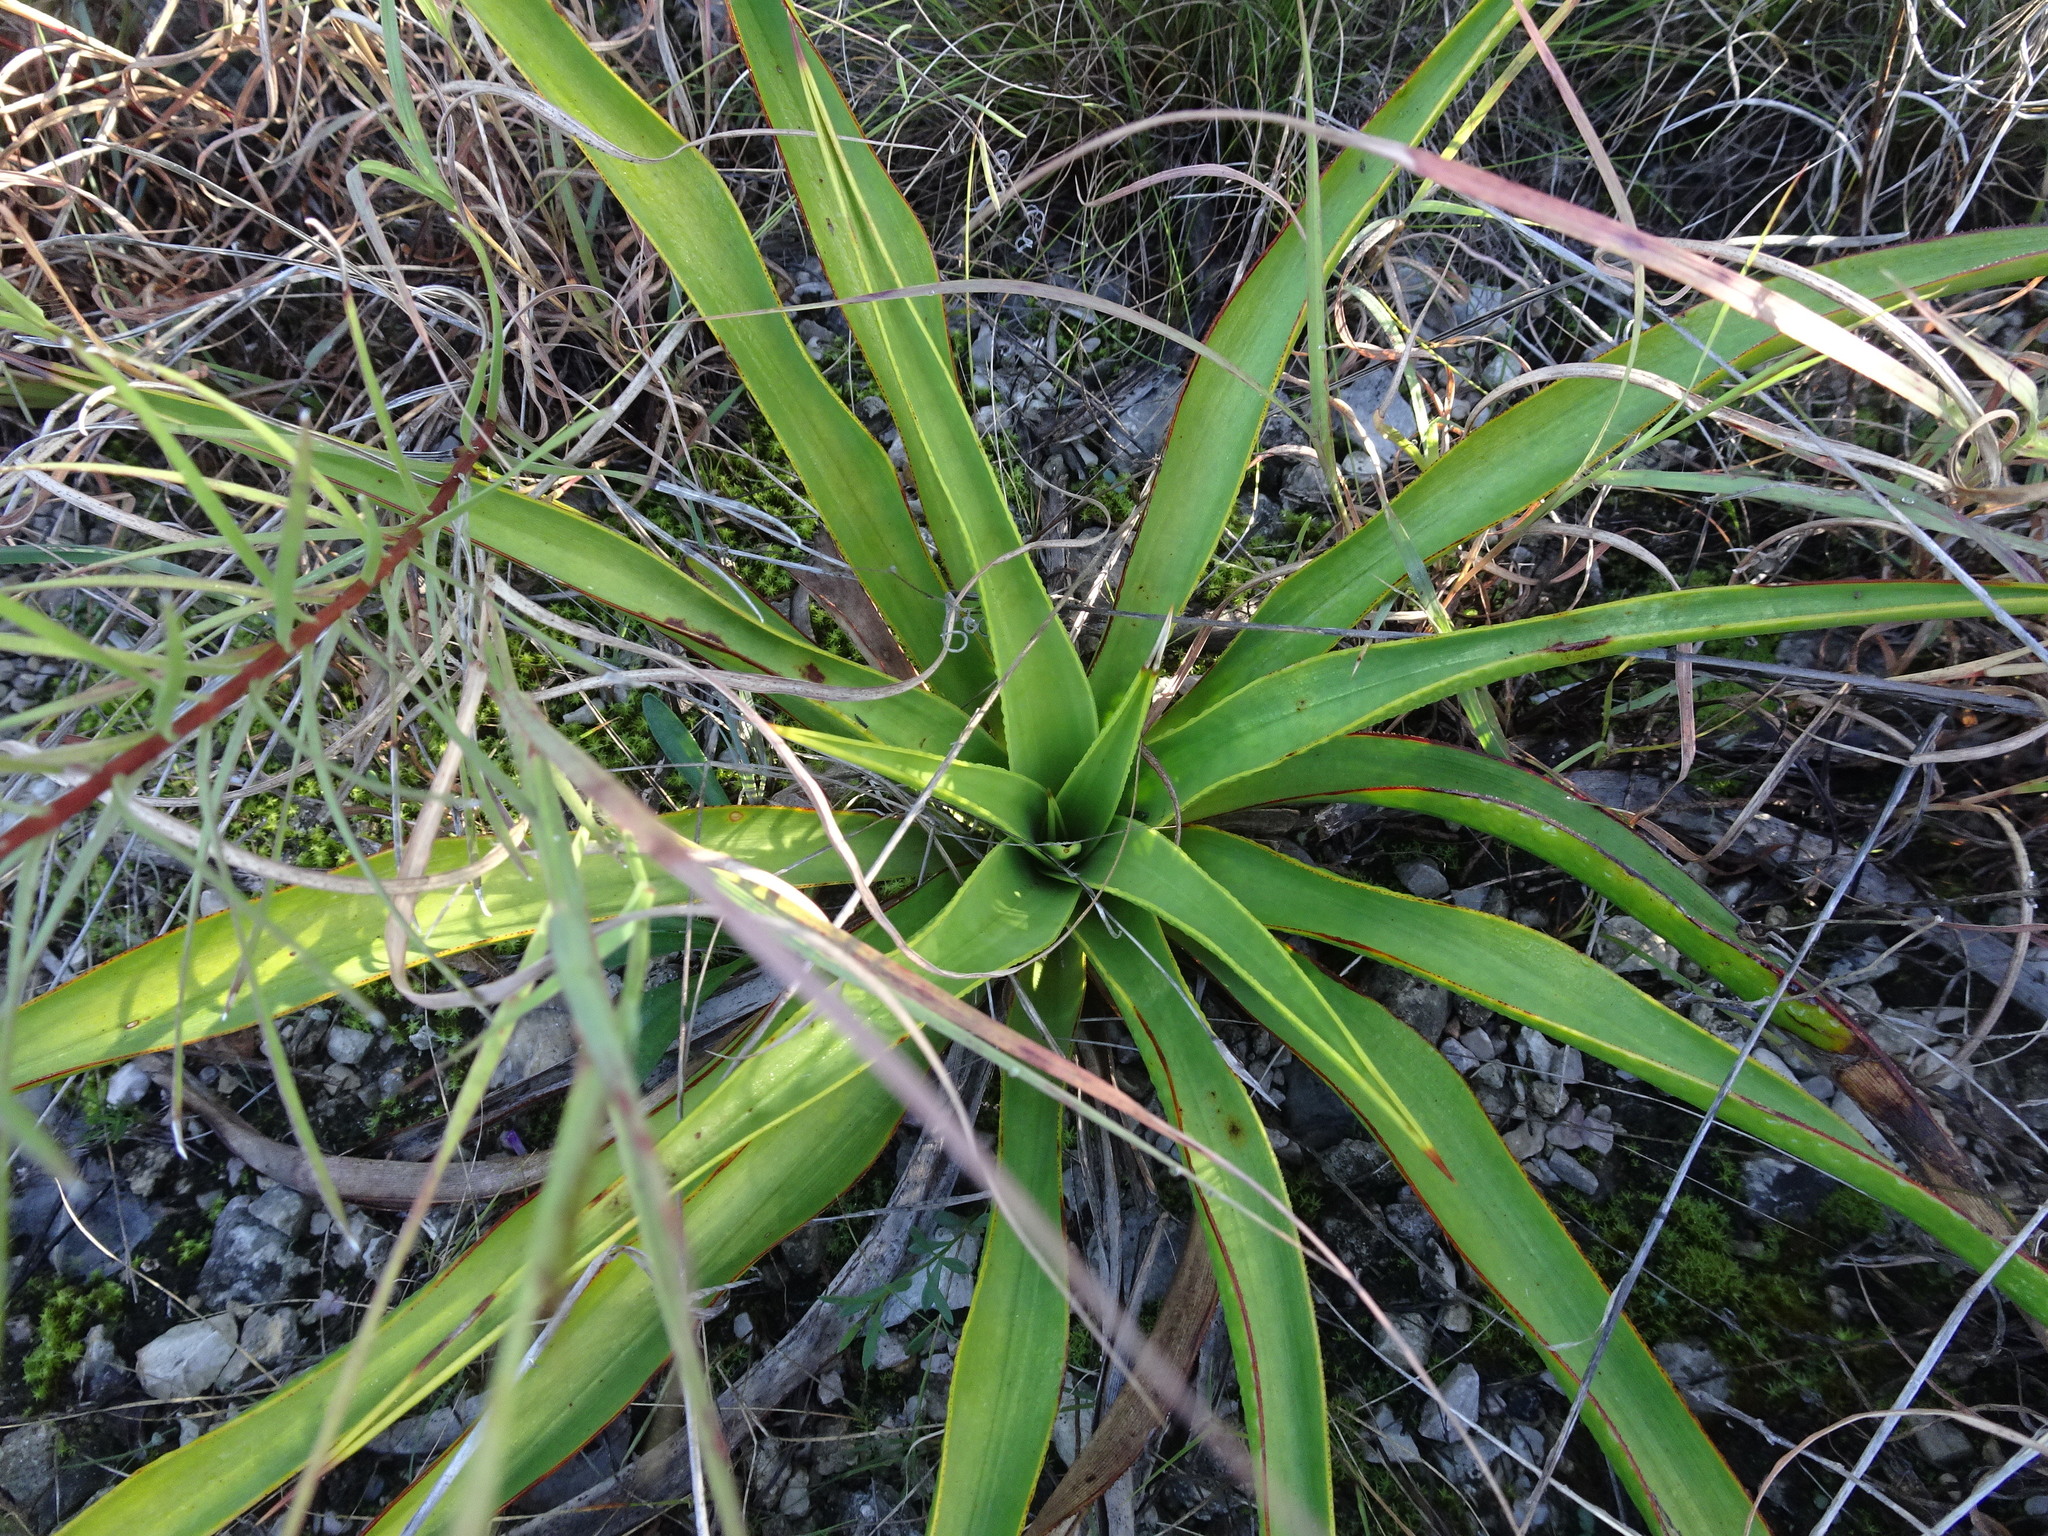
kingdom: Plantae
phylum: Tracheophyta
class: Liliopsida
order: Asparagales
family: Asparagaceae
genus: Yucca
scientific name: Yucca rupicola
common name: Twisted-leaf spanish-dagger
